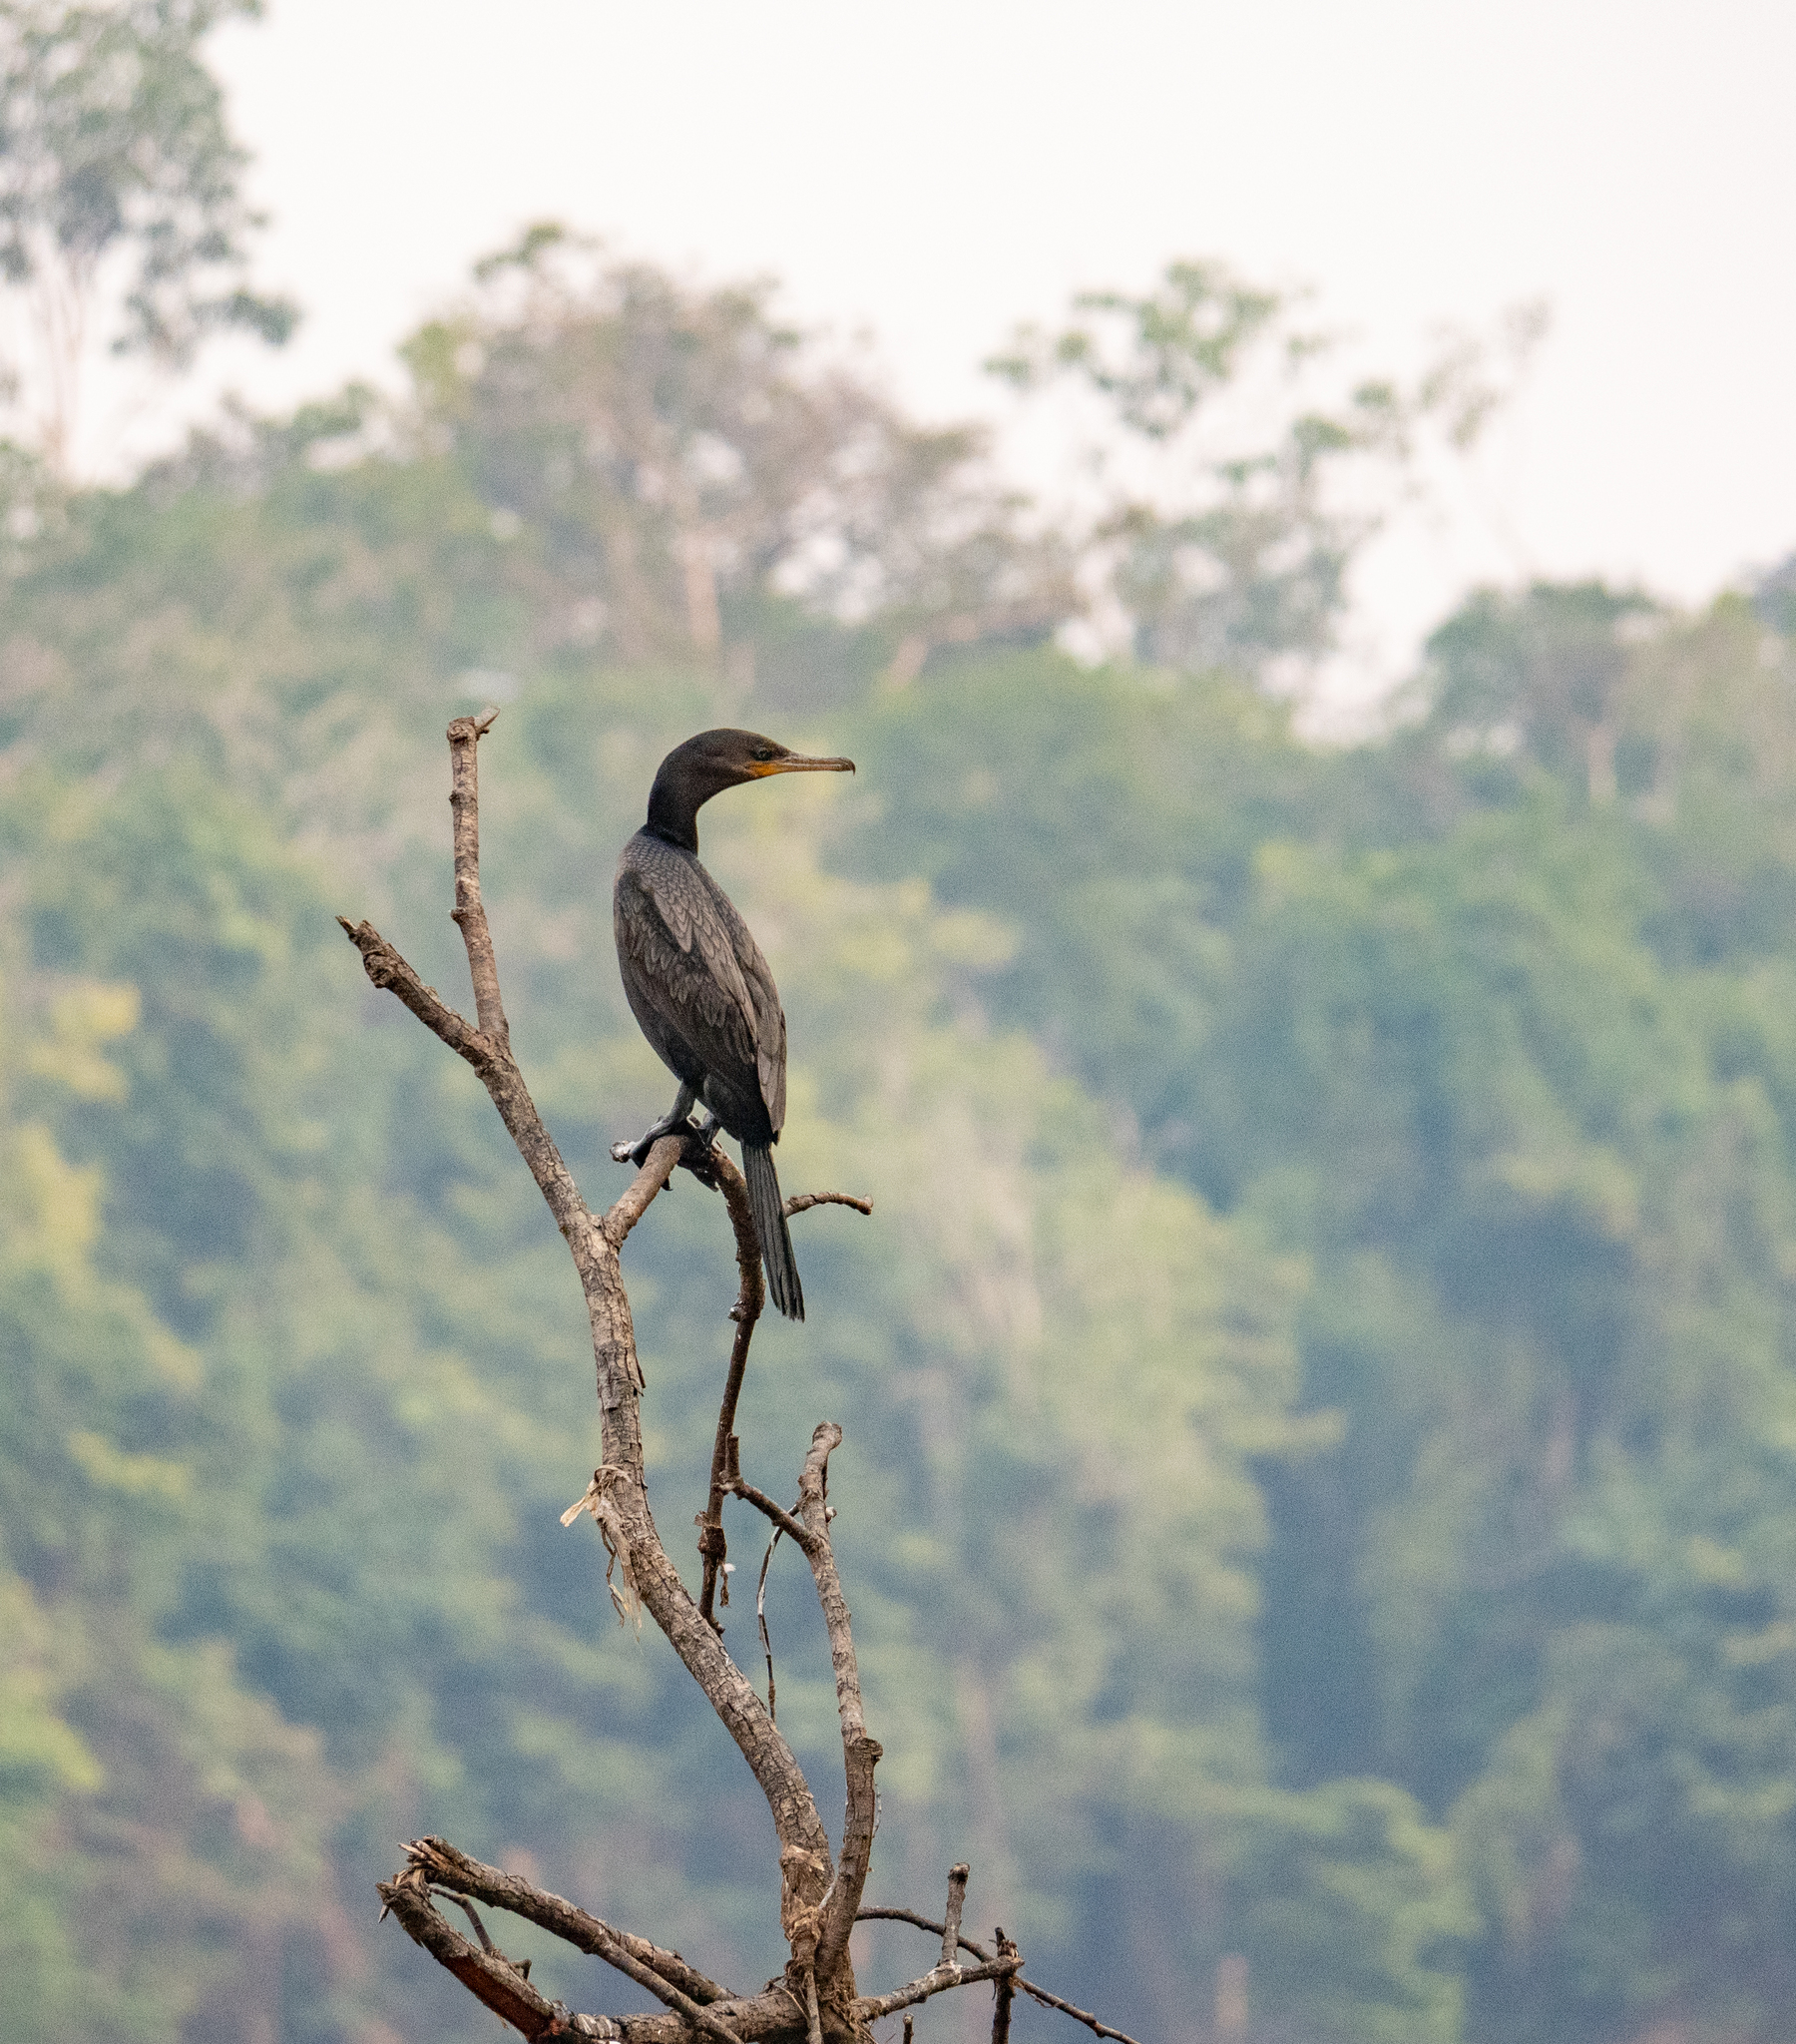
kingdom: Animalia
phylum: Chordata
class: Aves
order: Suliformes
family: Phalacrocoracidae
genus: Phalacrocorax
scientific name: Phalacrocorax brasilianus
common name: Neotropic cormorant
